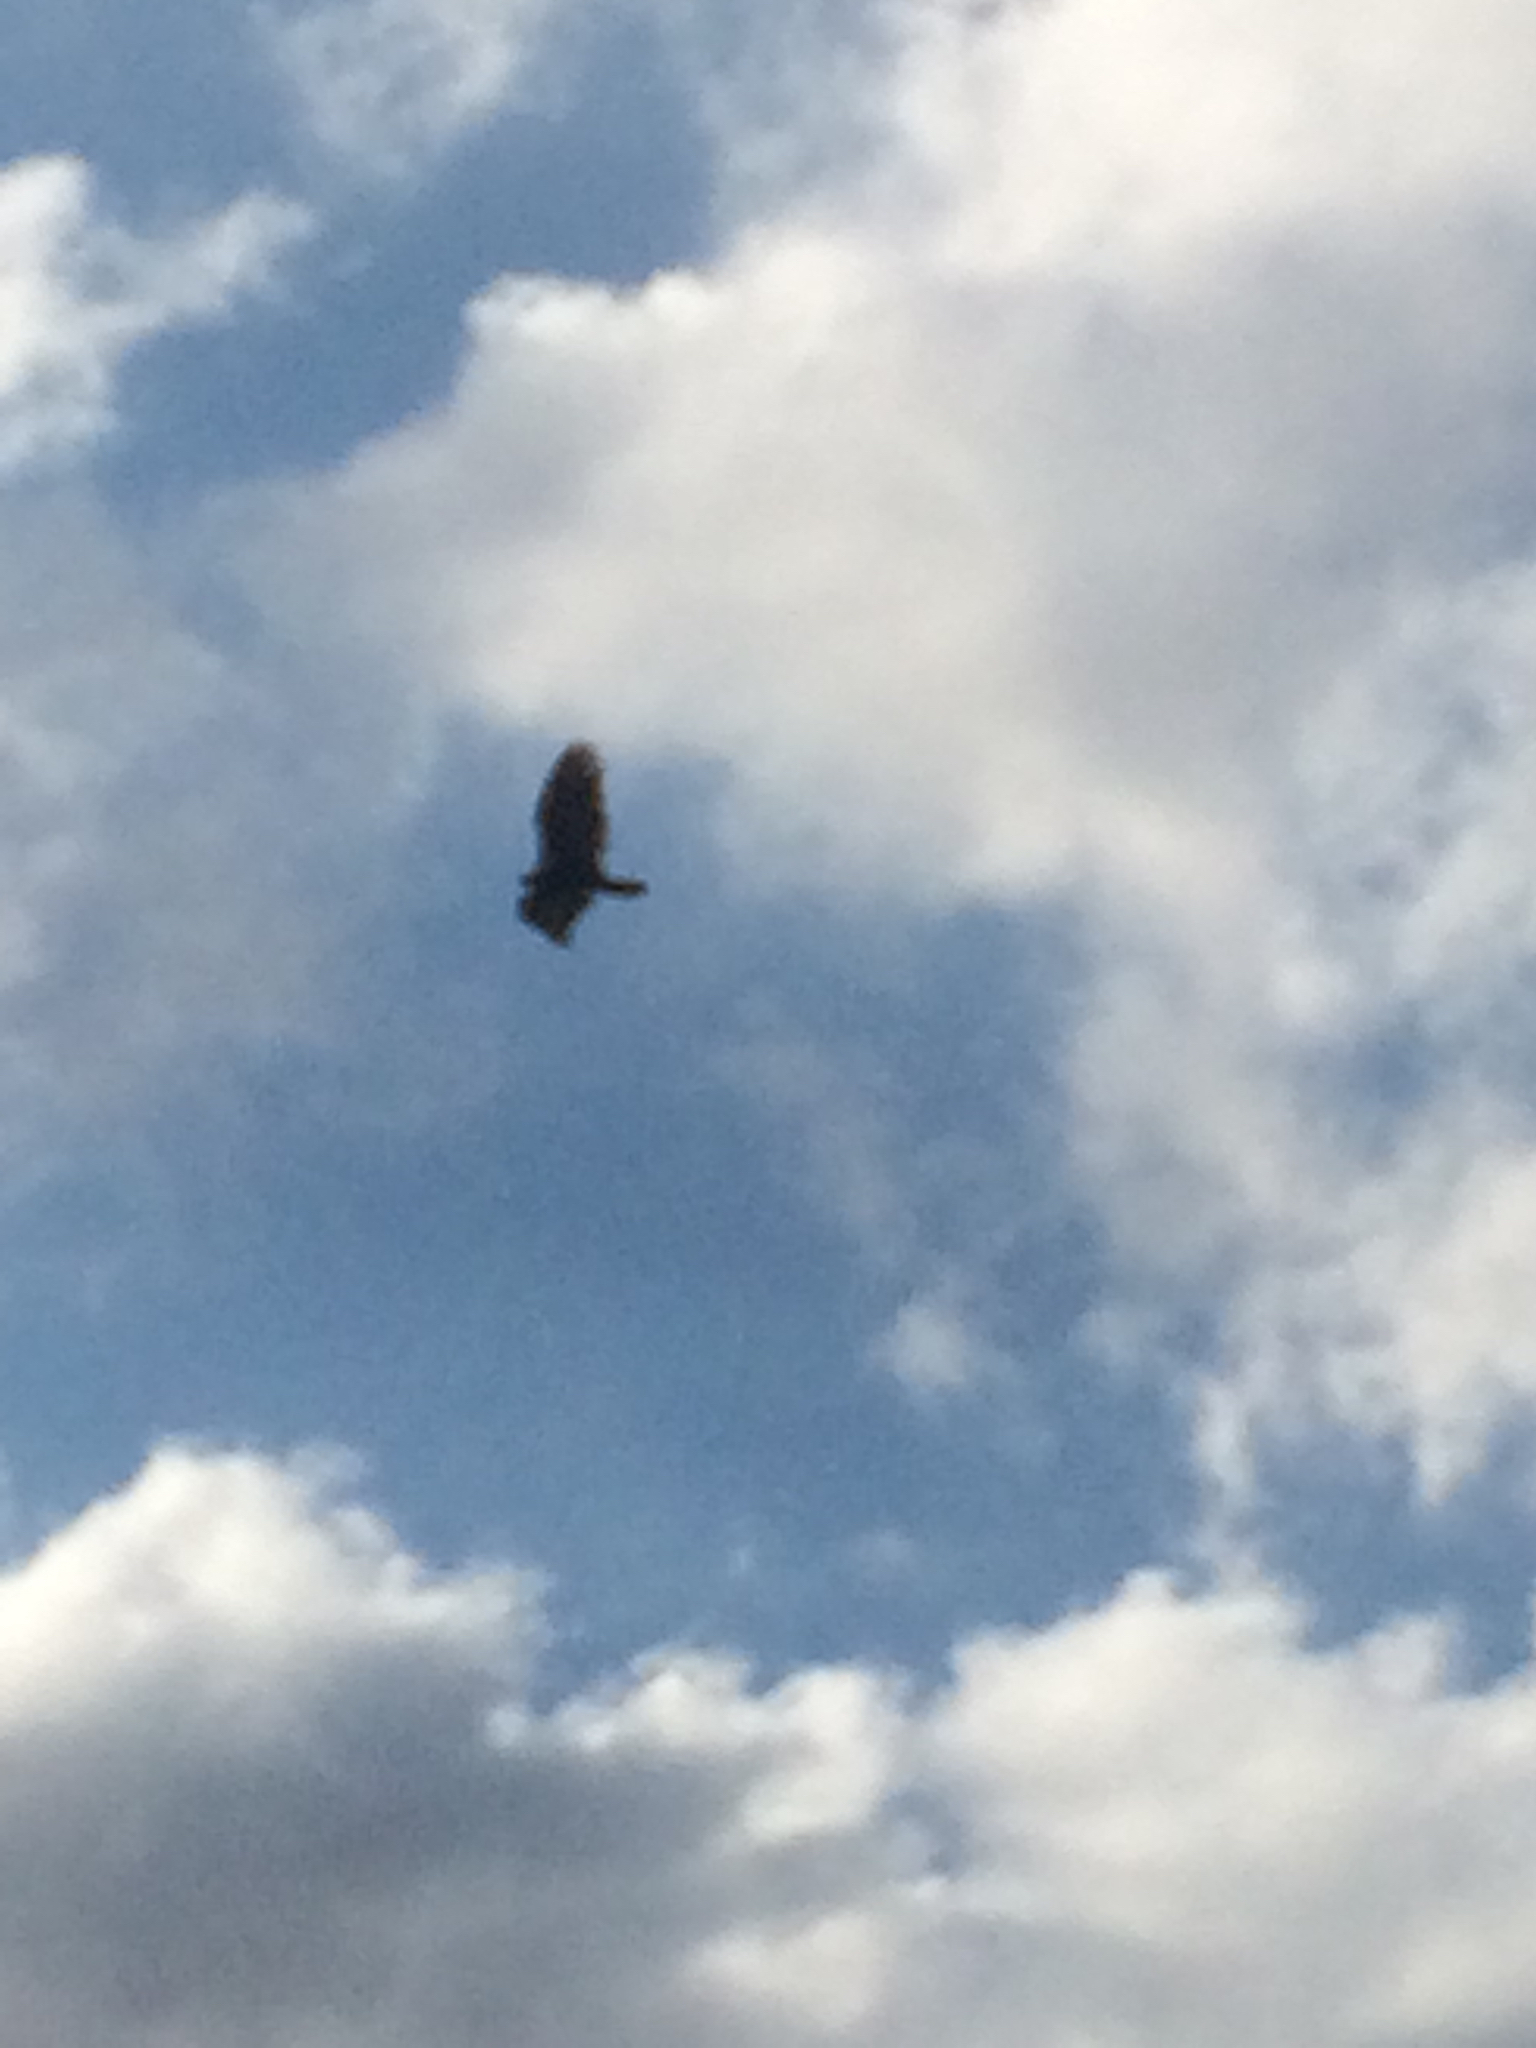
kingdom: Animalia
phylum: Chordata
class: Aves
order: Accipitriformes
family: Cathartidae
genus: Cathartes
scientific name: Cathartes aura
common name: Turkey vulture
